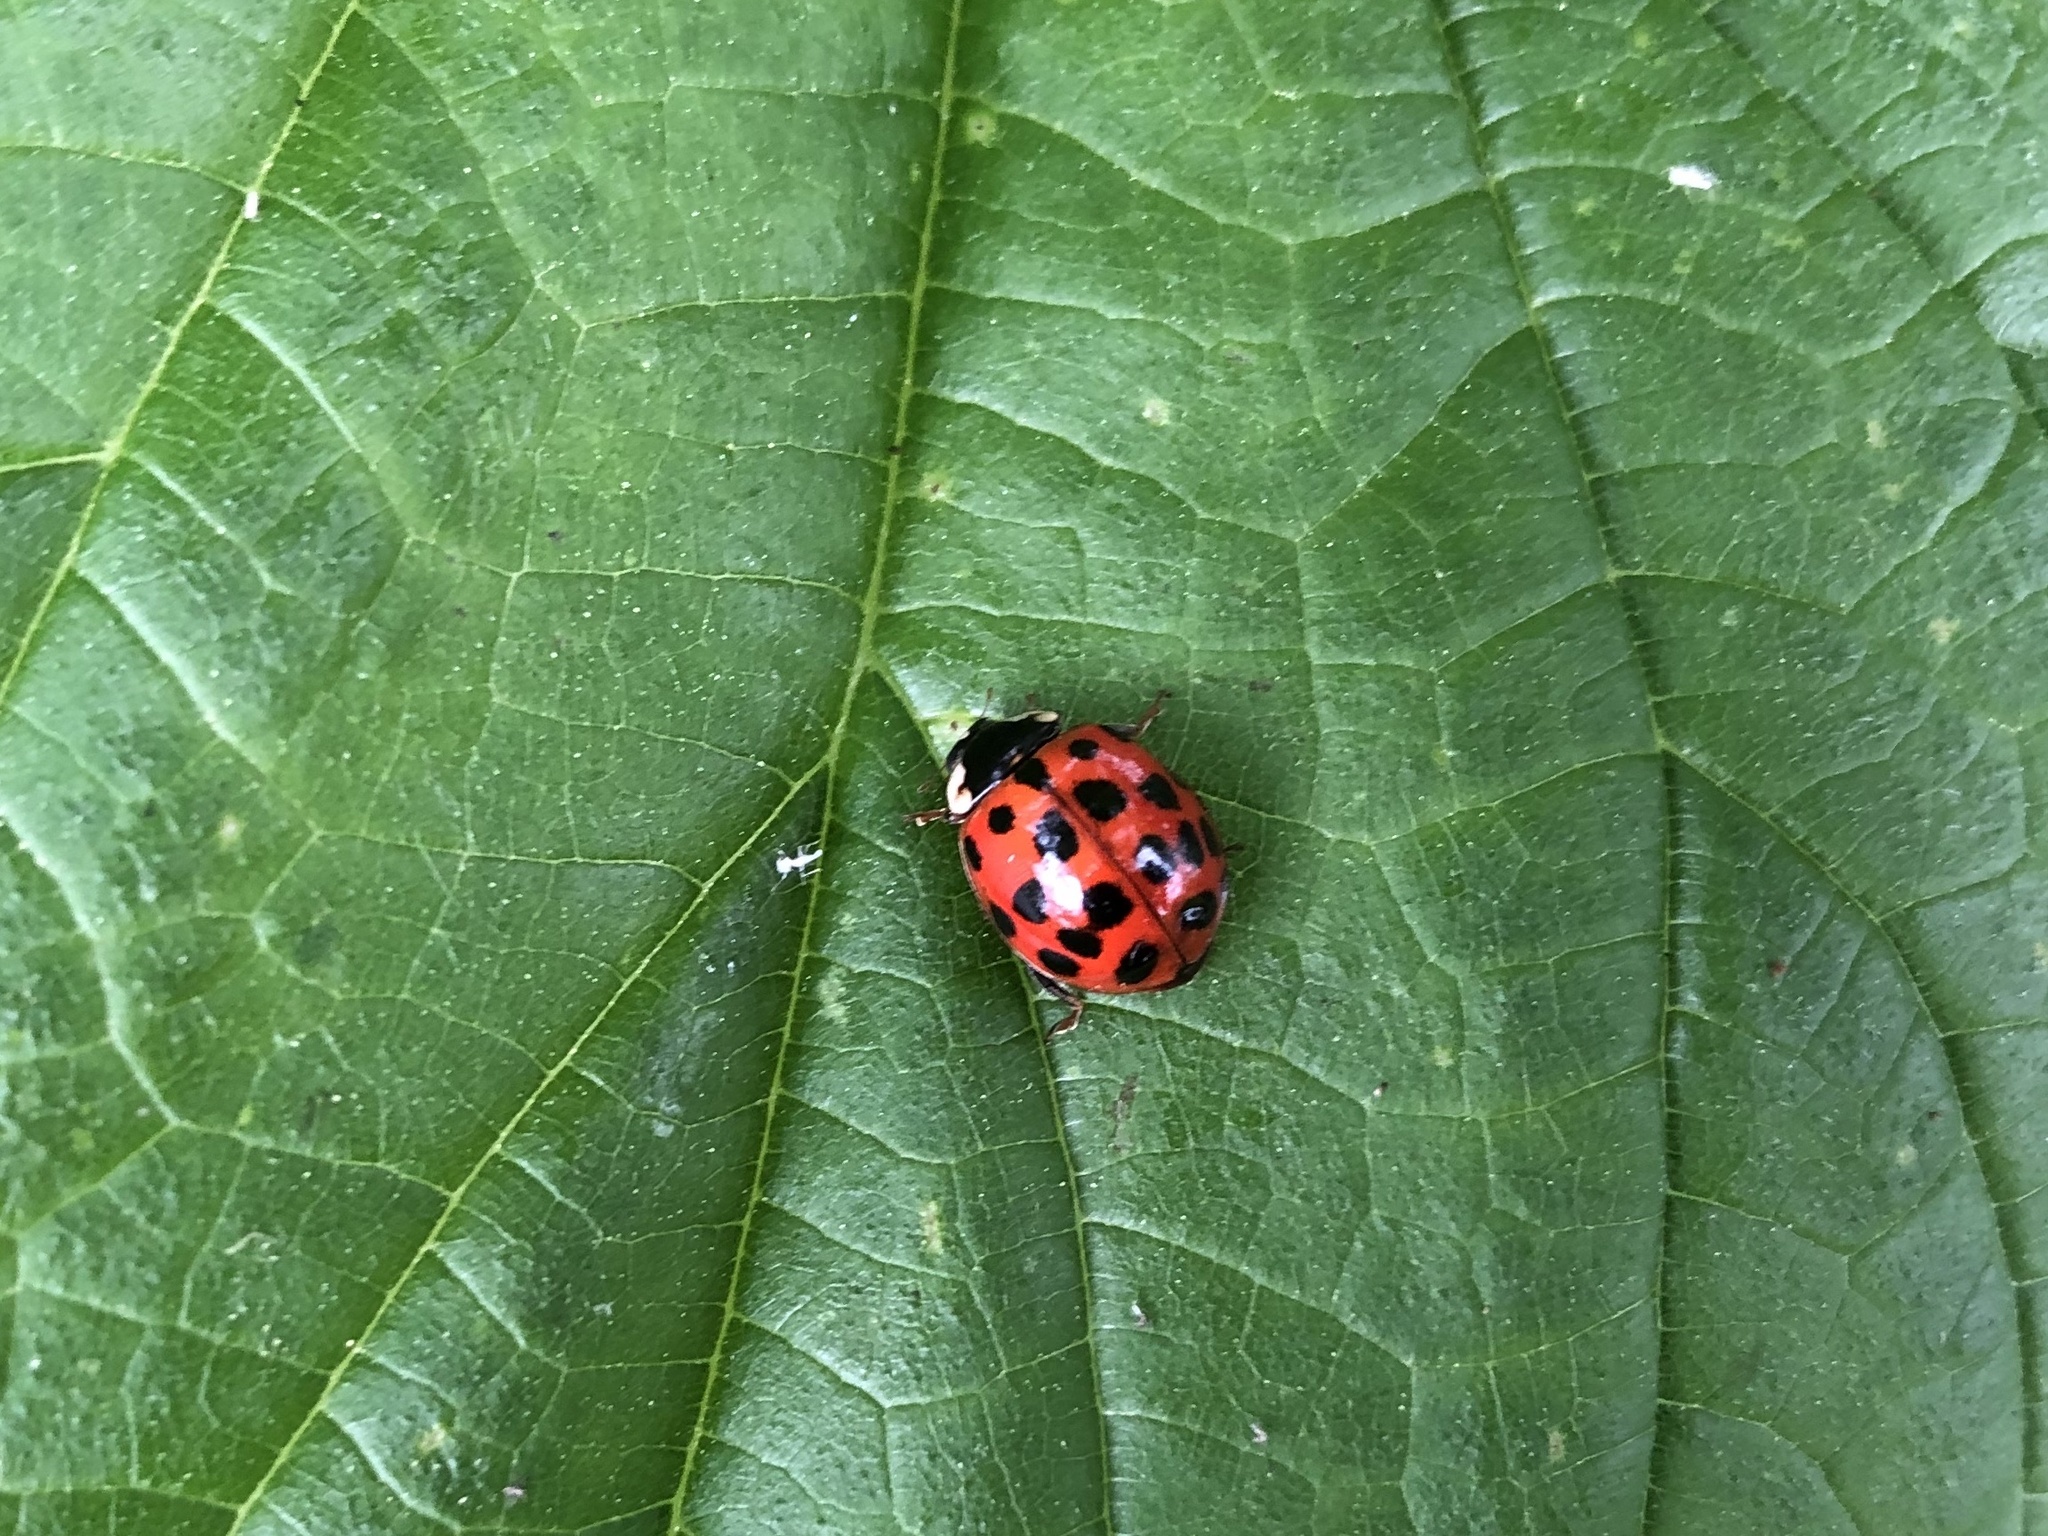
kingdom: Animalia
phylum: Arthropoda
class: Insecta
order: Coleoptera
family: Coccinellidae
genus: Harmonia
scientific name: Harmonia axyridis
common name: Harlequin ladybird
